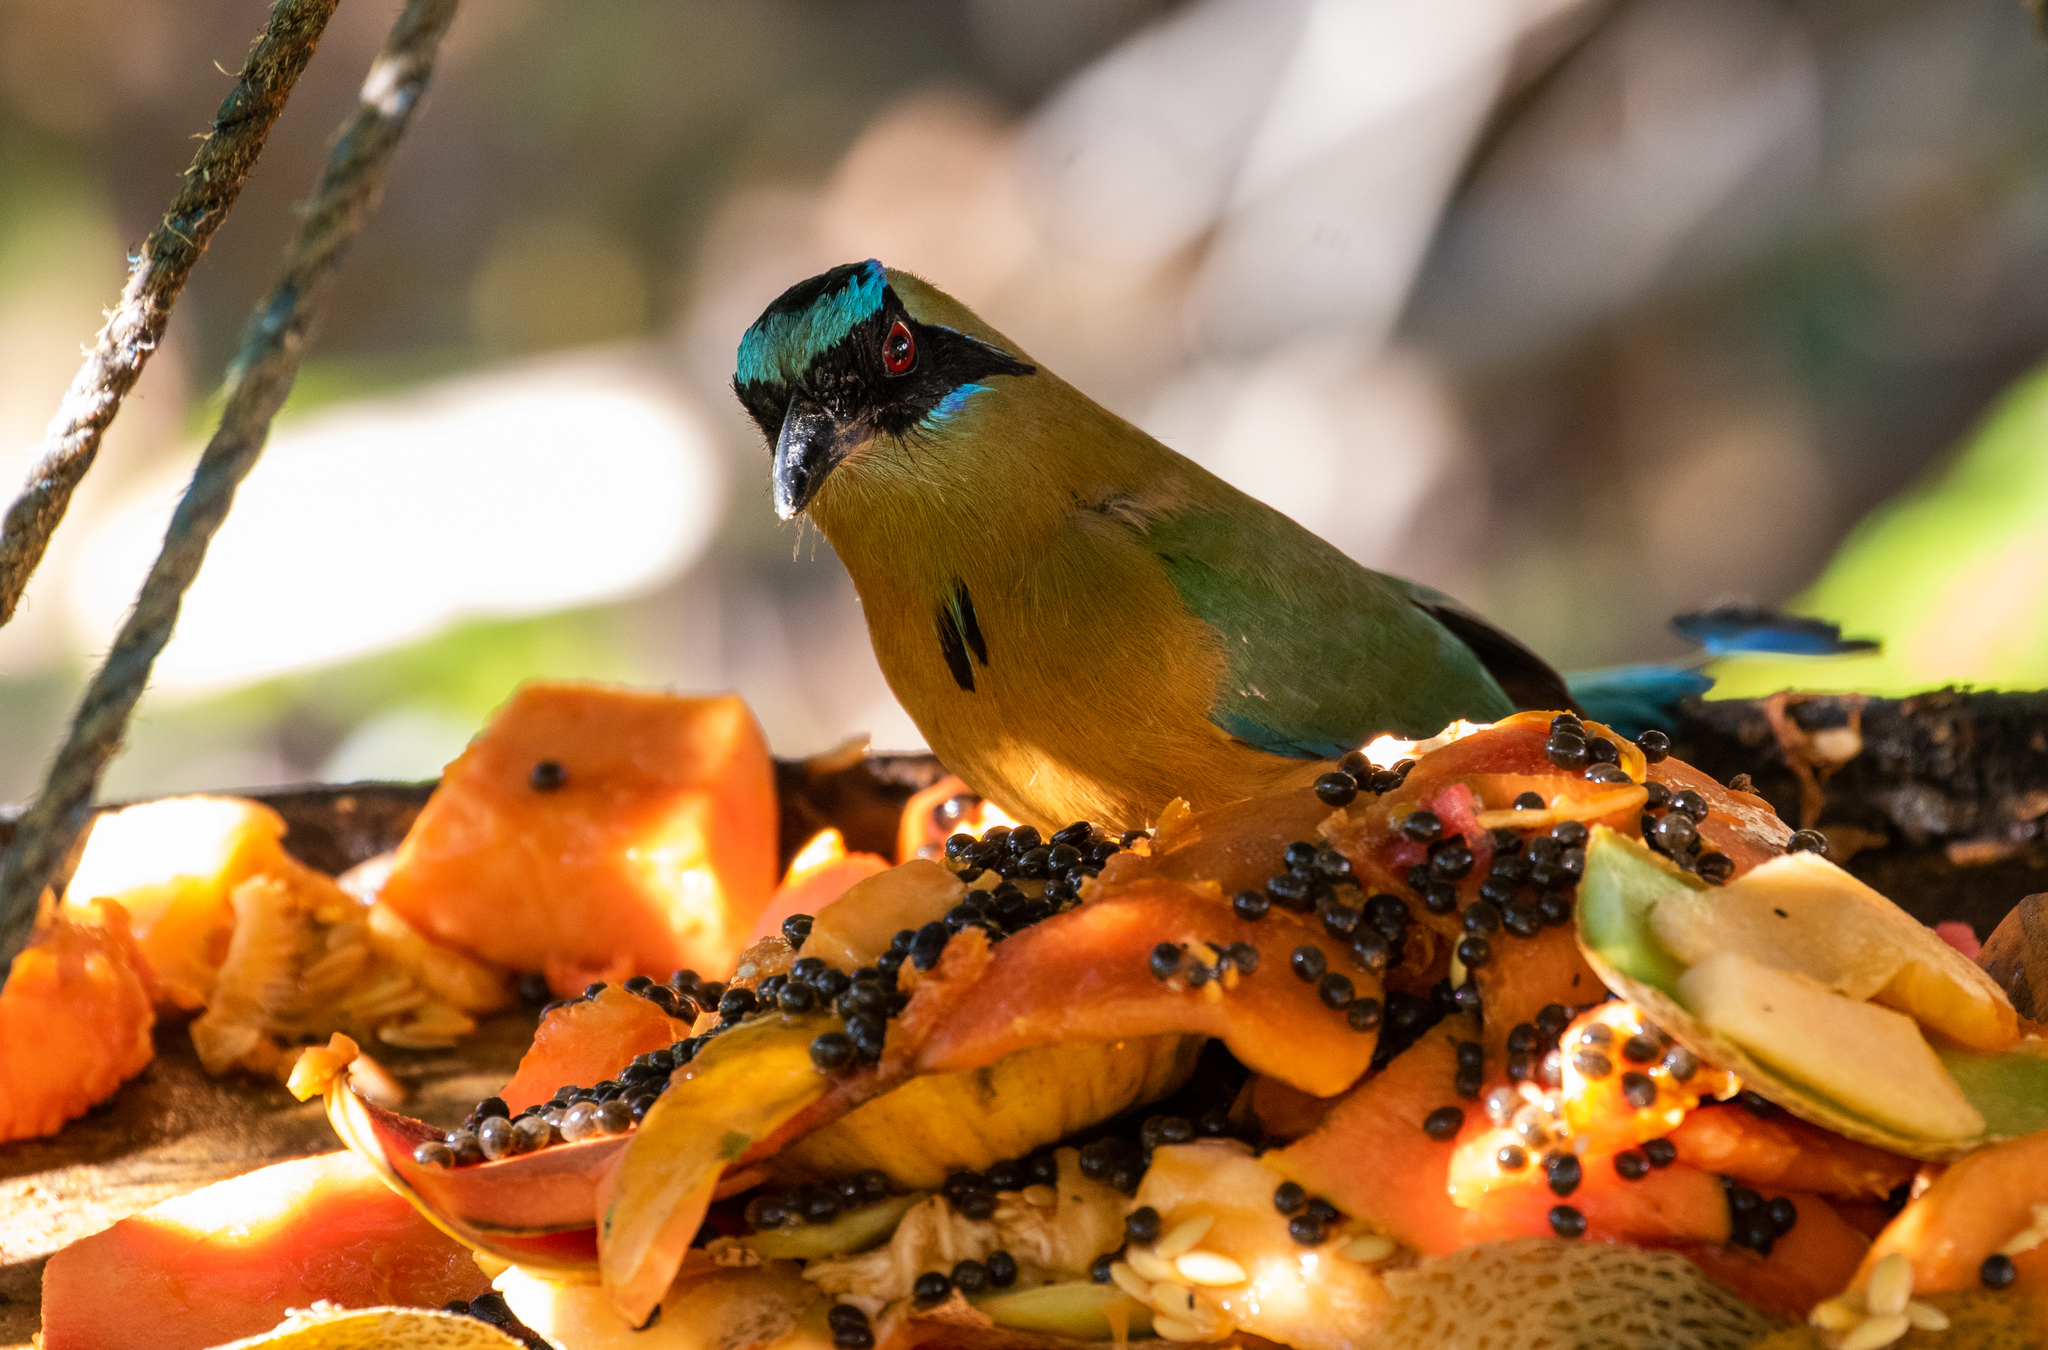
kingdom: Animalia
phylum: Chordata
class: Aves
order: Coraciiformes
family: Momotidae
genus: Momotus
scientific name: Momotus subrufescens
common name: Whooping motmot
